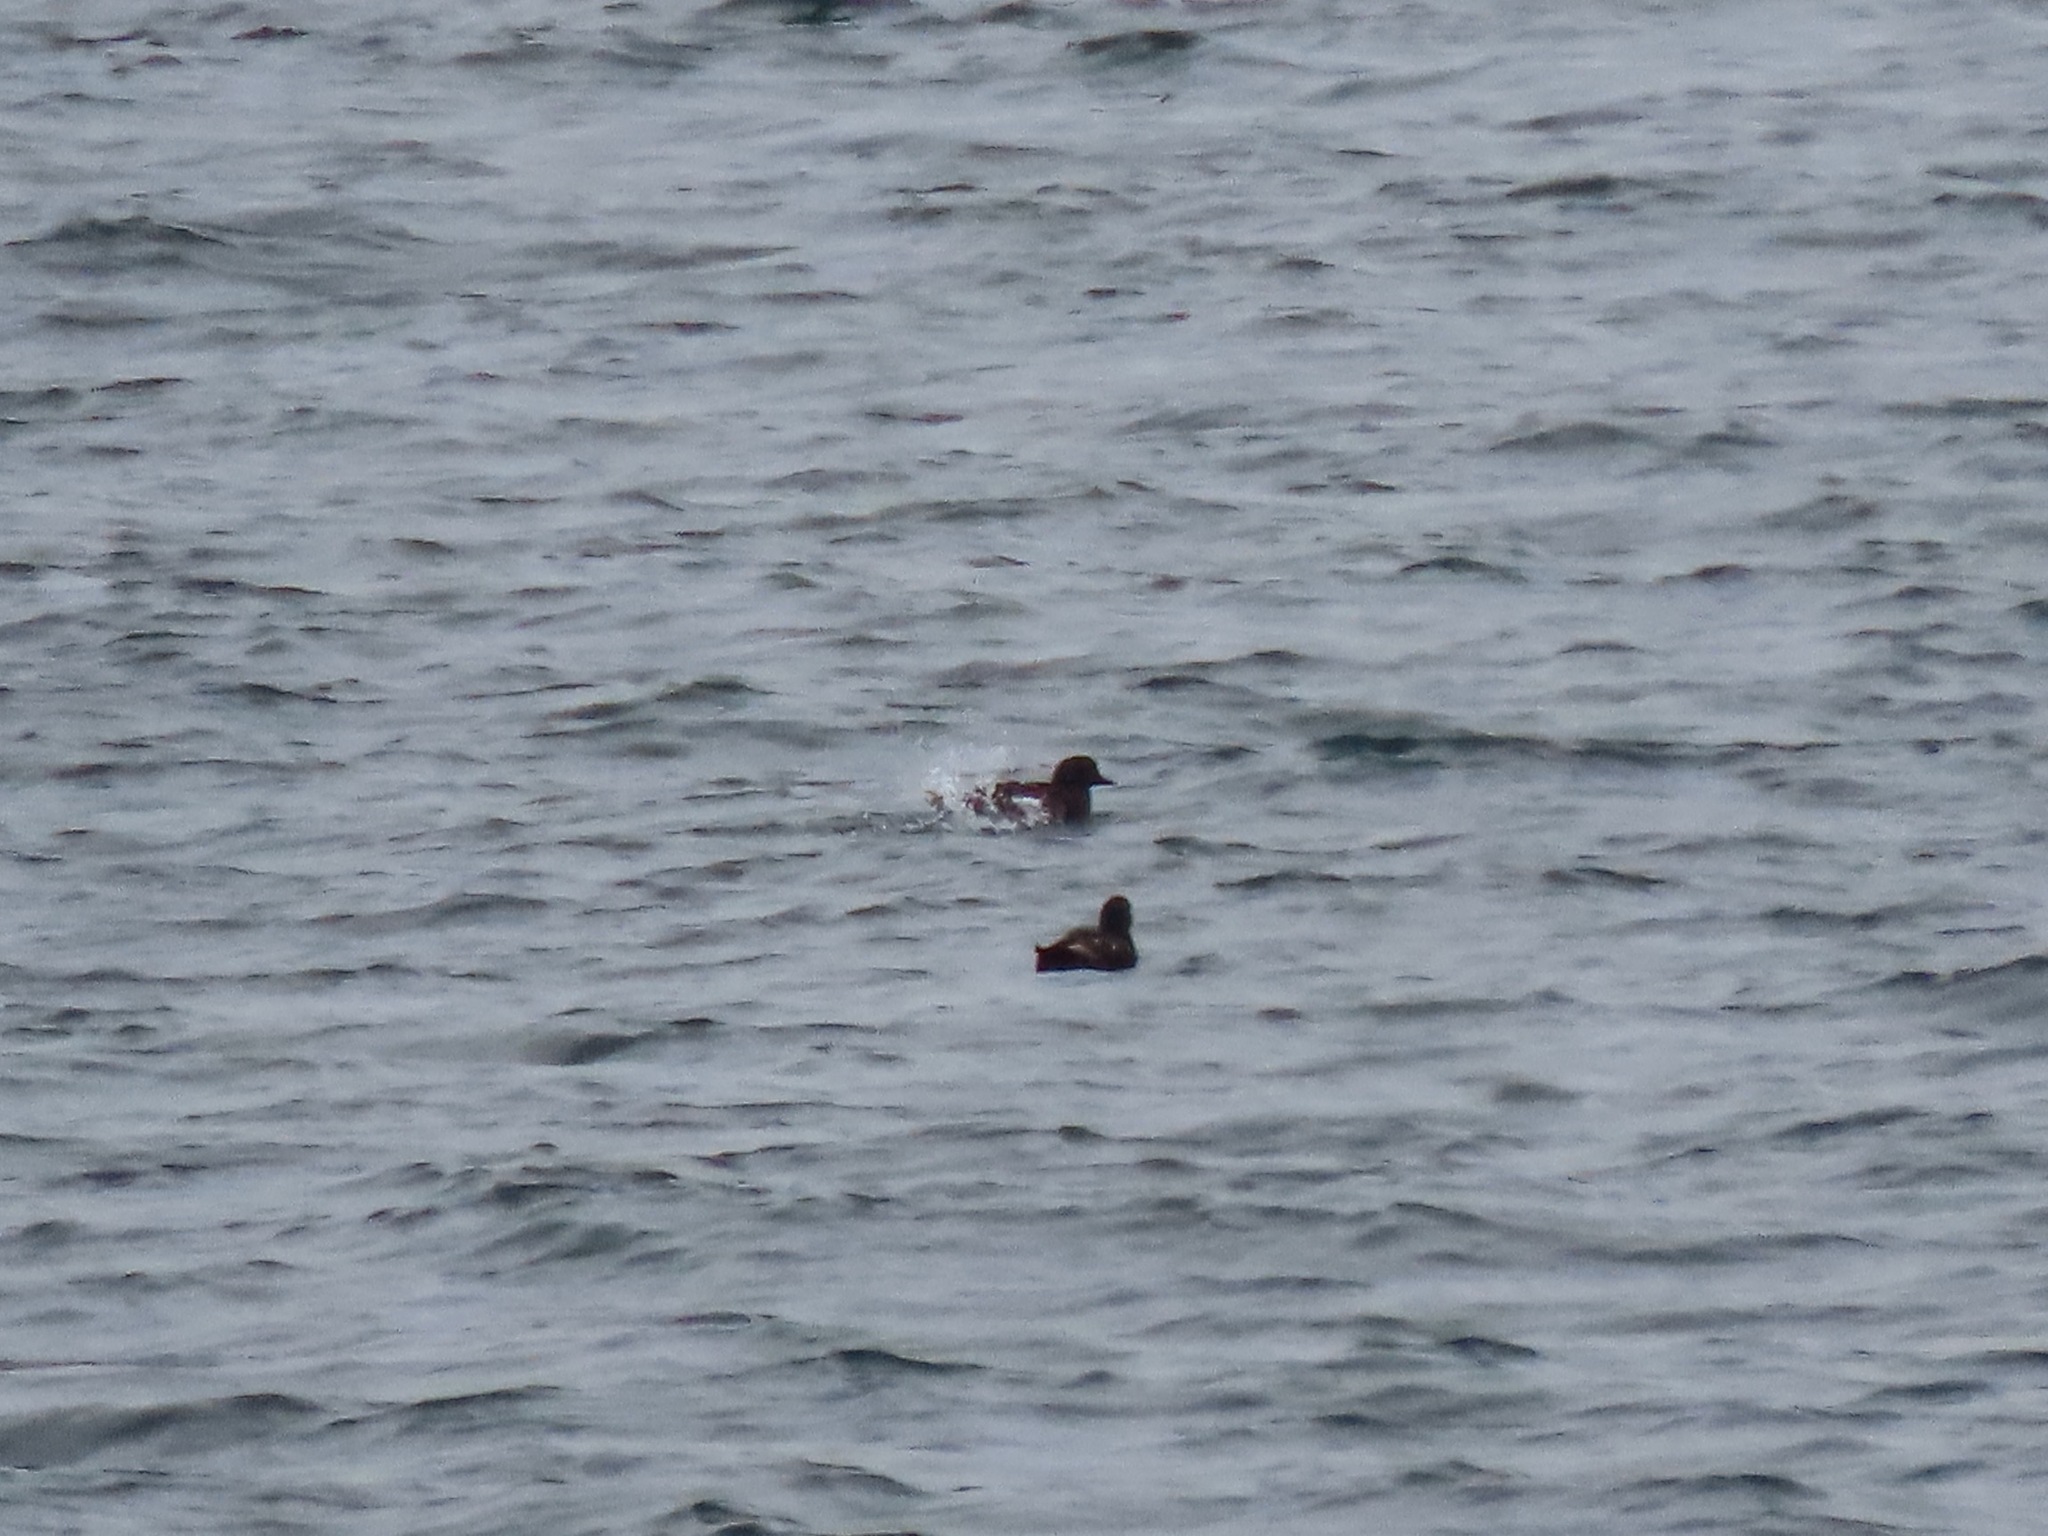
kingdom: Animalia
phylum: Chordata
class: Aves
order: Charadriiformes
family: Alcidae
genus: Cepphus
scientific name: Cepphus columba
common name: Pigeon guillemot
